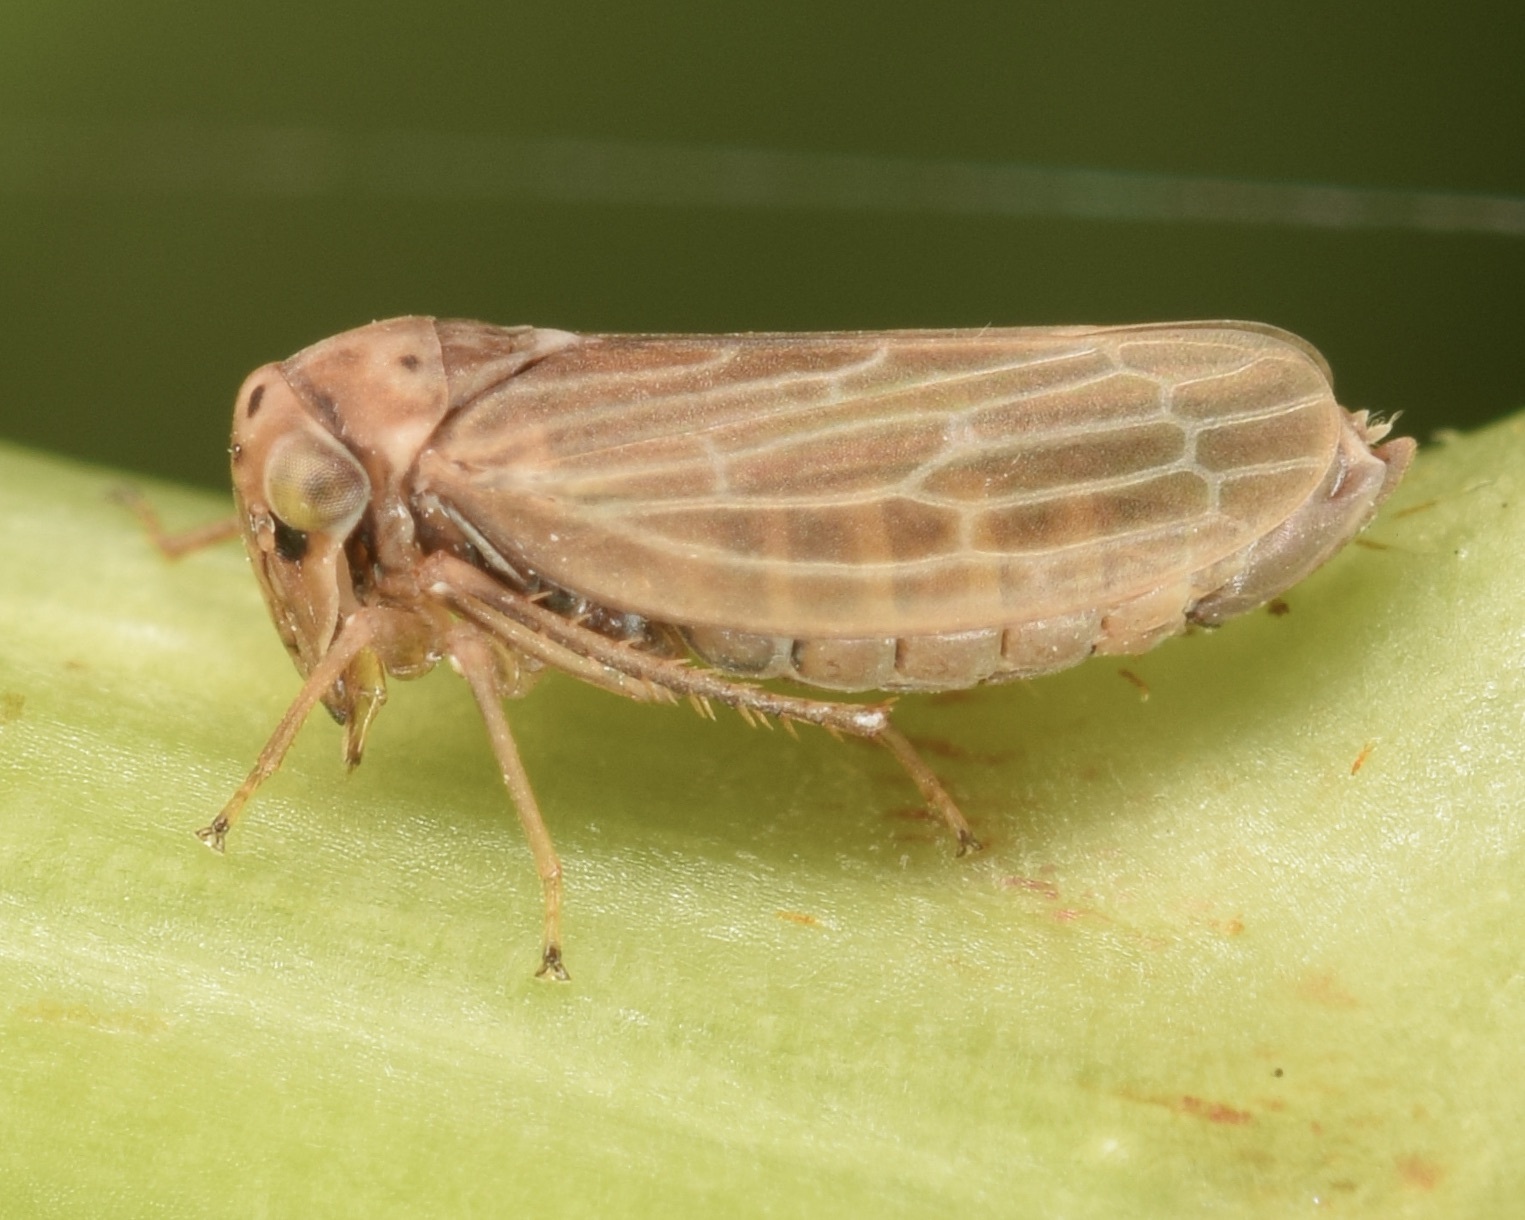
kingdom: Animalia
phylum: Arthropoda
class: Insecta
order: Hemiptera
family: Cicadellidae
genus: Agalliota
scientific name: Agalliota quadripunctata
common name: The four-spotted clover leafhopper
